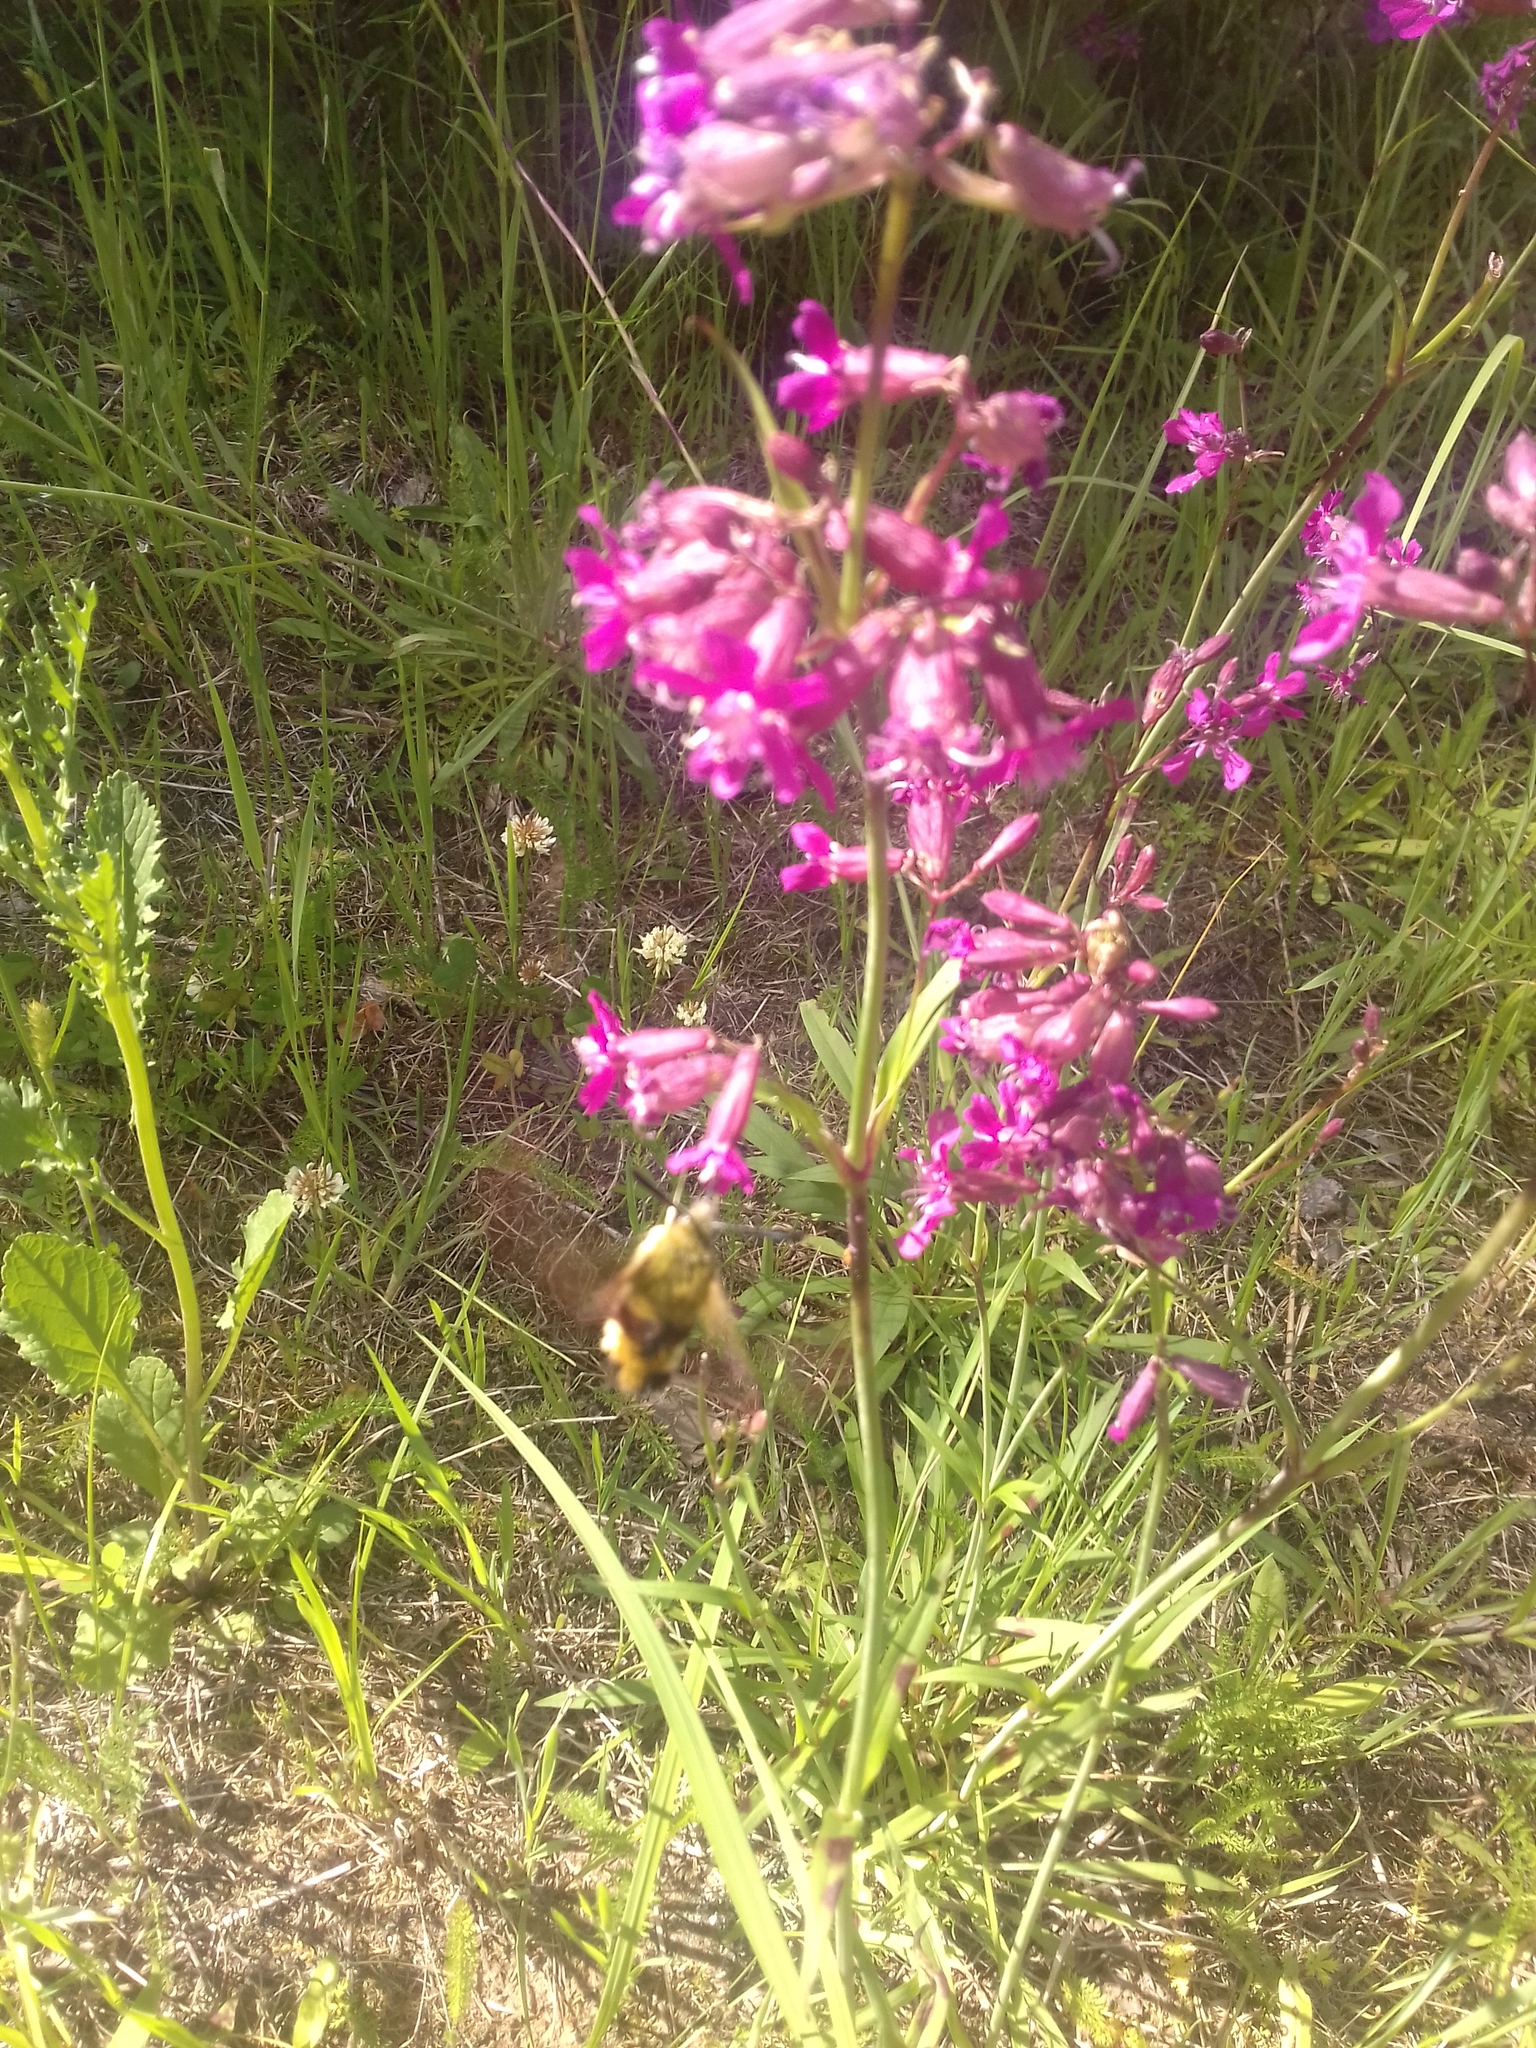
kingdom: Plantae
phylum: Tracheophyta
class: Magnoliopsida
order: Caryophyllales
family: Caryophyllaceae
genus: Viscaria
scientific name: Viscaria vulgaris
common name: Clammy campion
